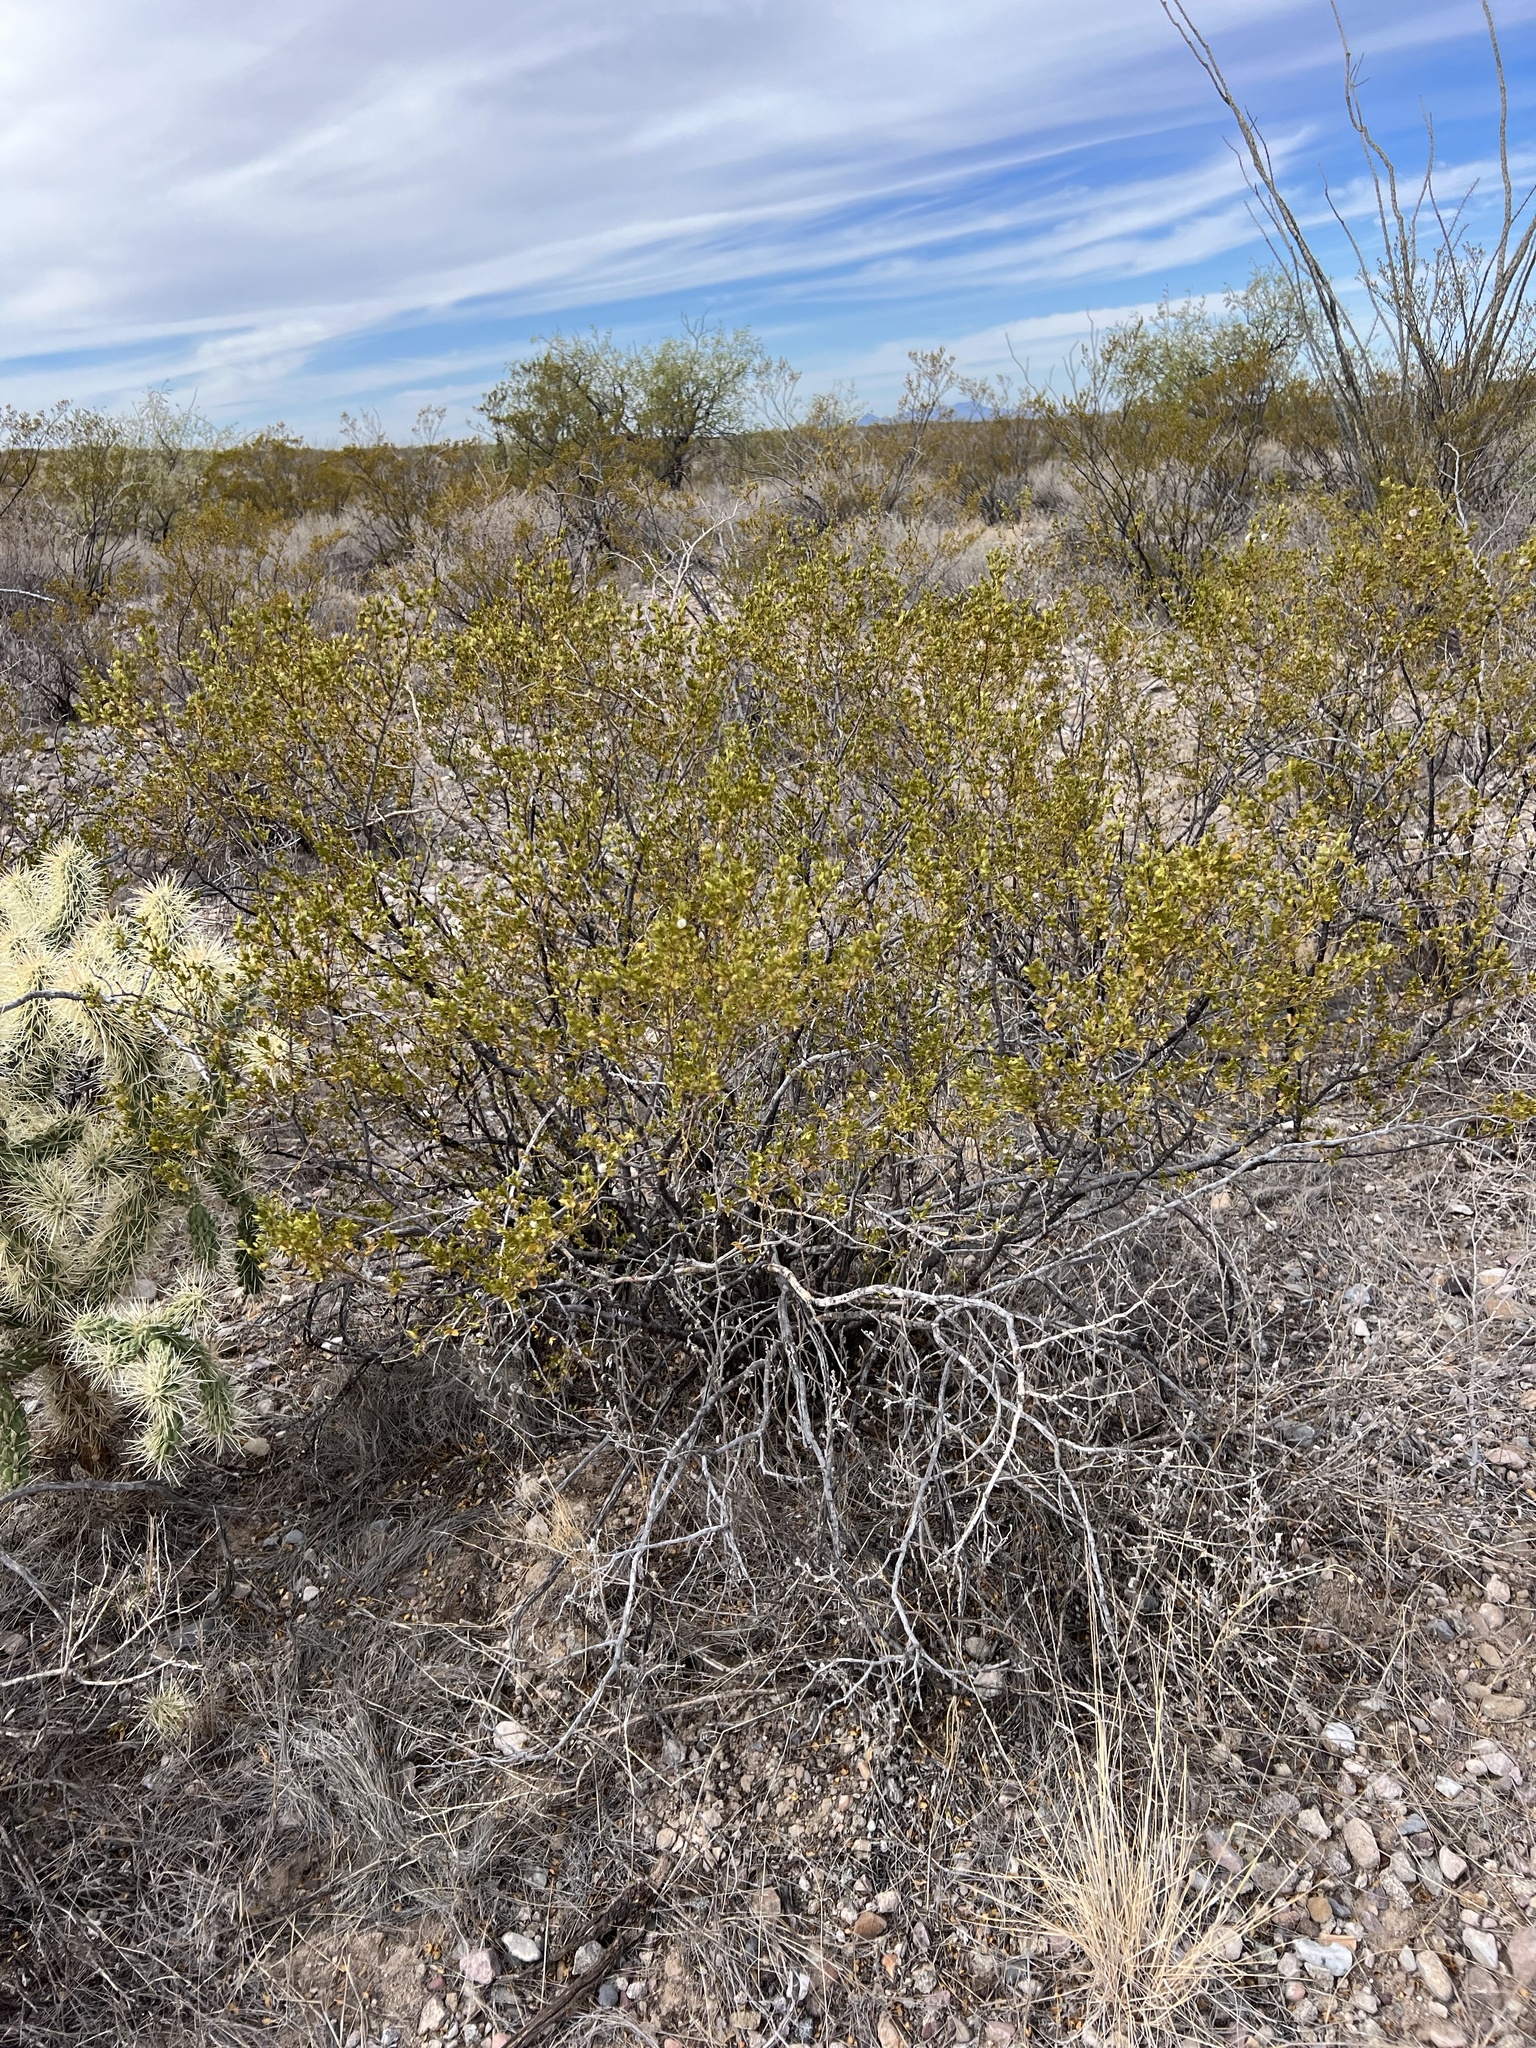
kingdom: Plantae
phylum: Tracheophyta
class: Magnoliopsida
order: Zygophyllales
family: Zygophyllaceae
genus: Larrea
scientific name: Larrea tridentata
